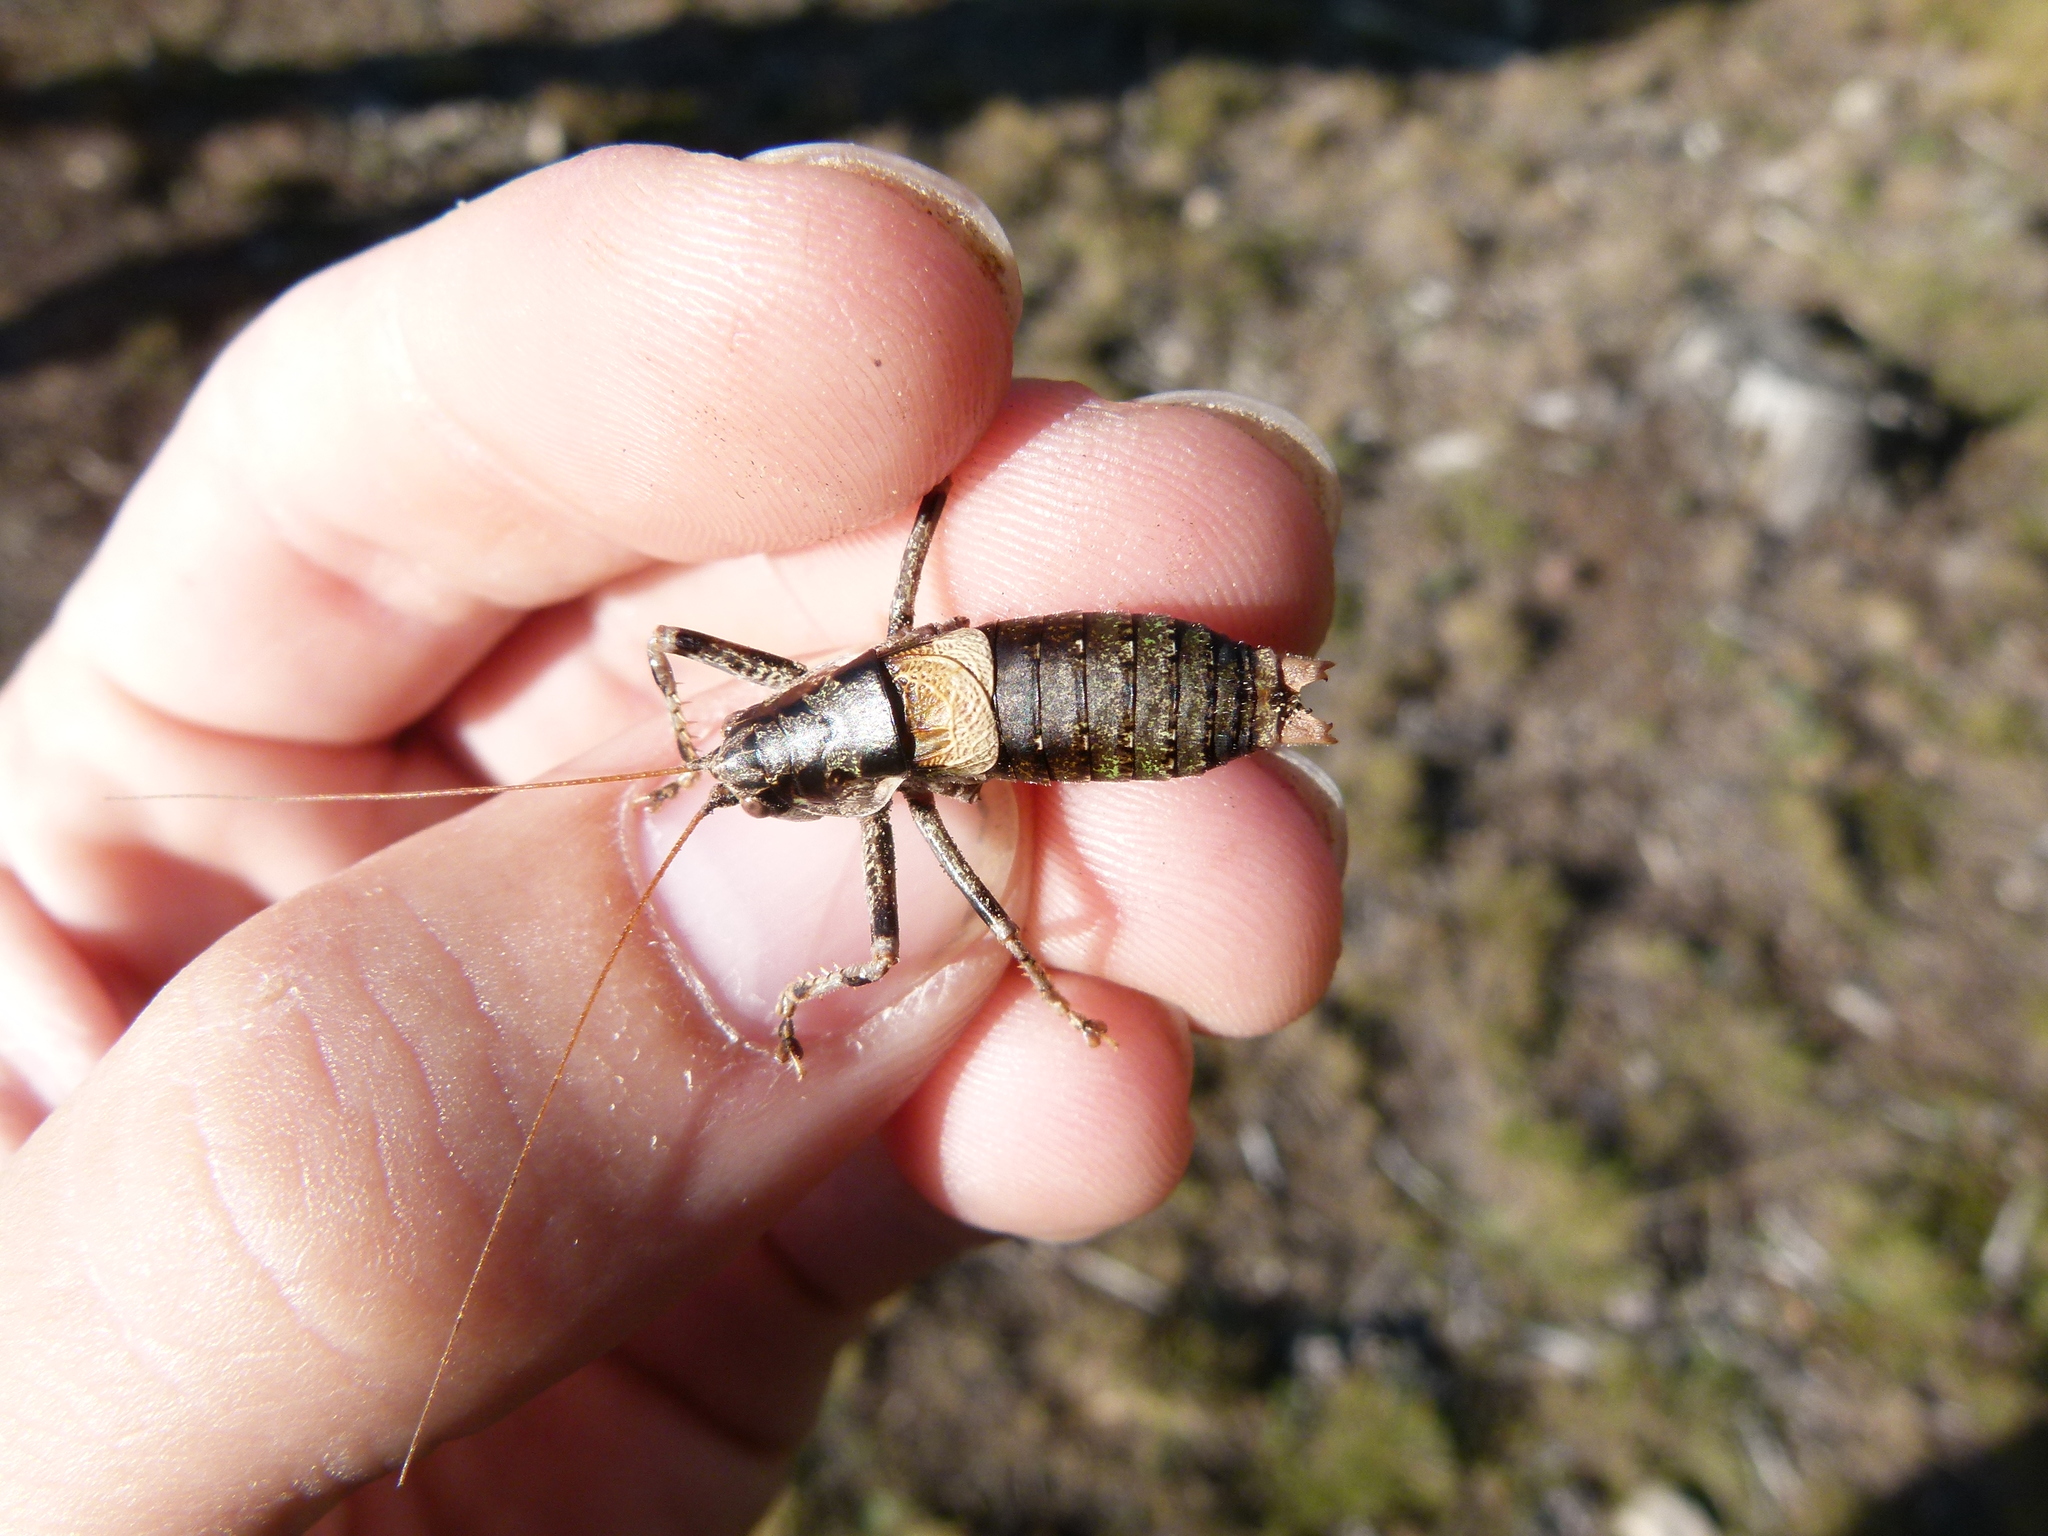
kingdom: Animalia
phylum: Arthropoda
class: Insecta
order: Orthoptera
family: Tettigoniidae
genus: Antaxius
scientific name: Antaxius sorrezensis
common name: French mountain bush-cricket
